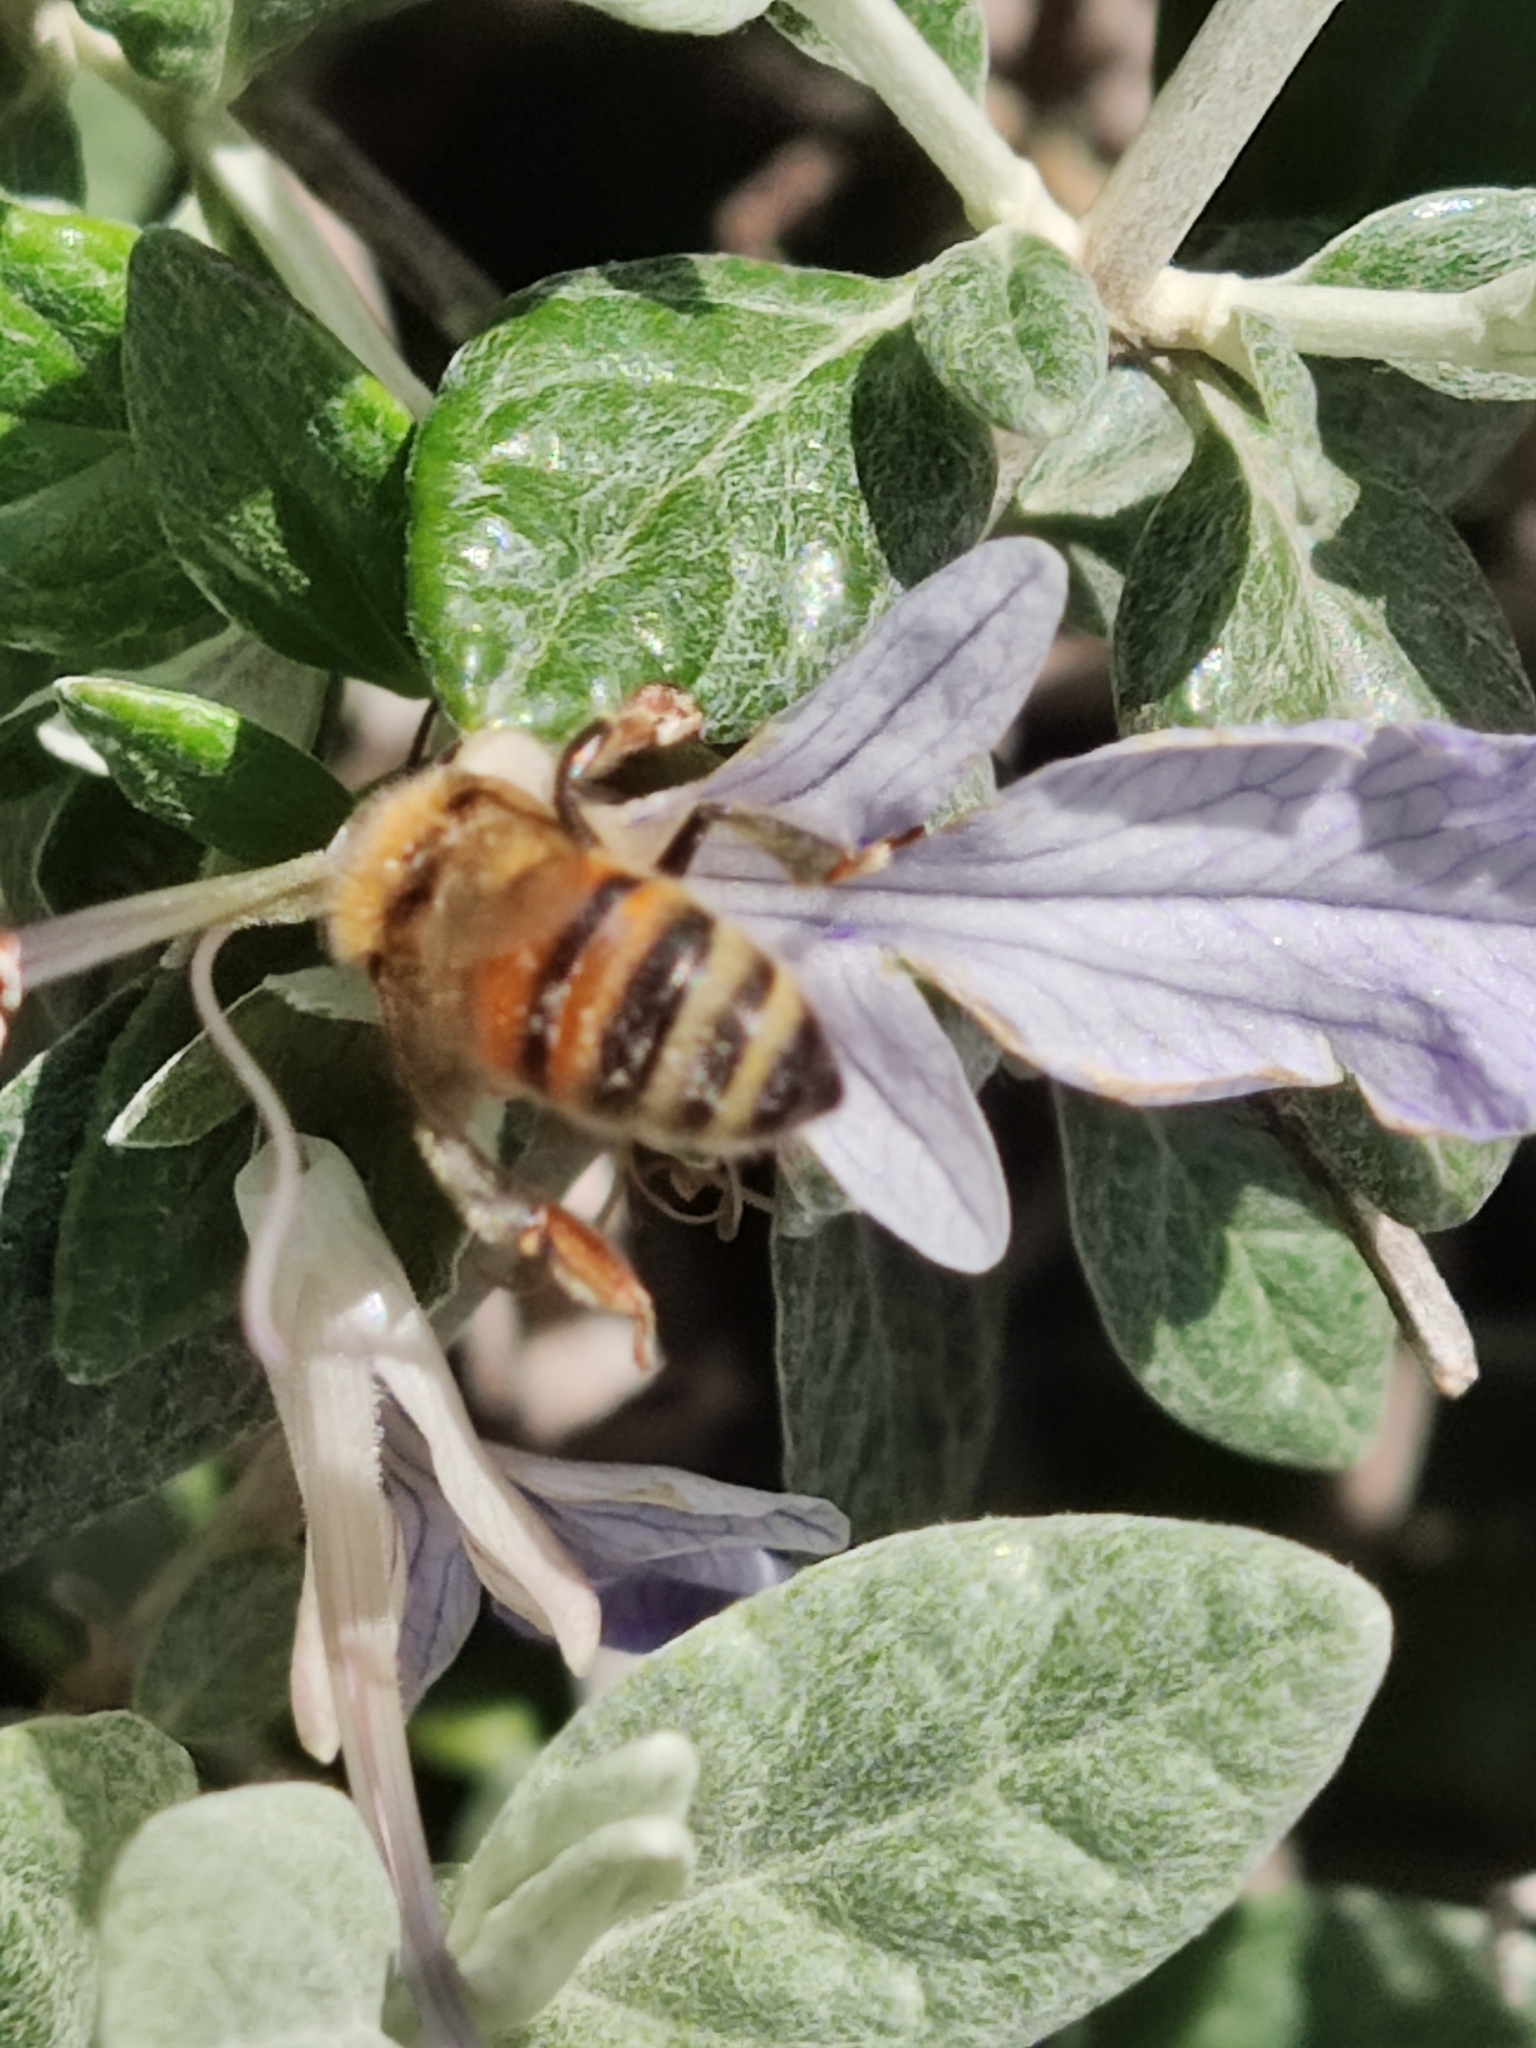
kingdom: Animalia
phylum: Arthropoda
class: Insecta
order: Hymenoptera
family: Apidae
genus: Apis
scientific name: Apis mellifera
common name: Honey bee
